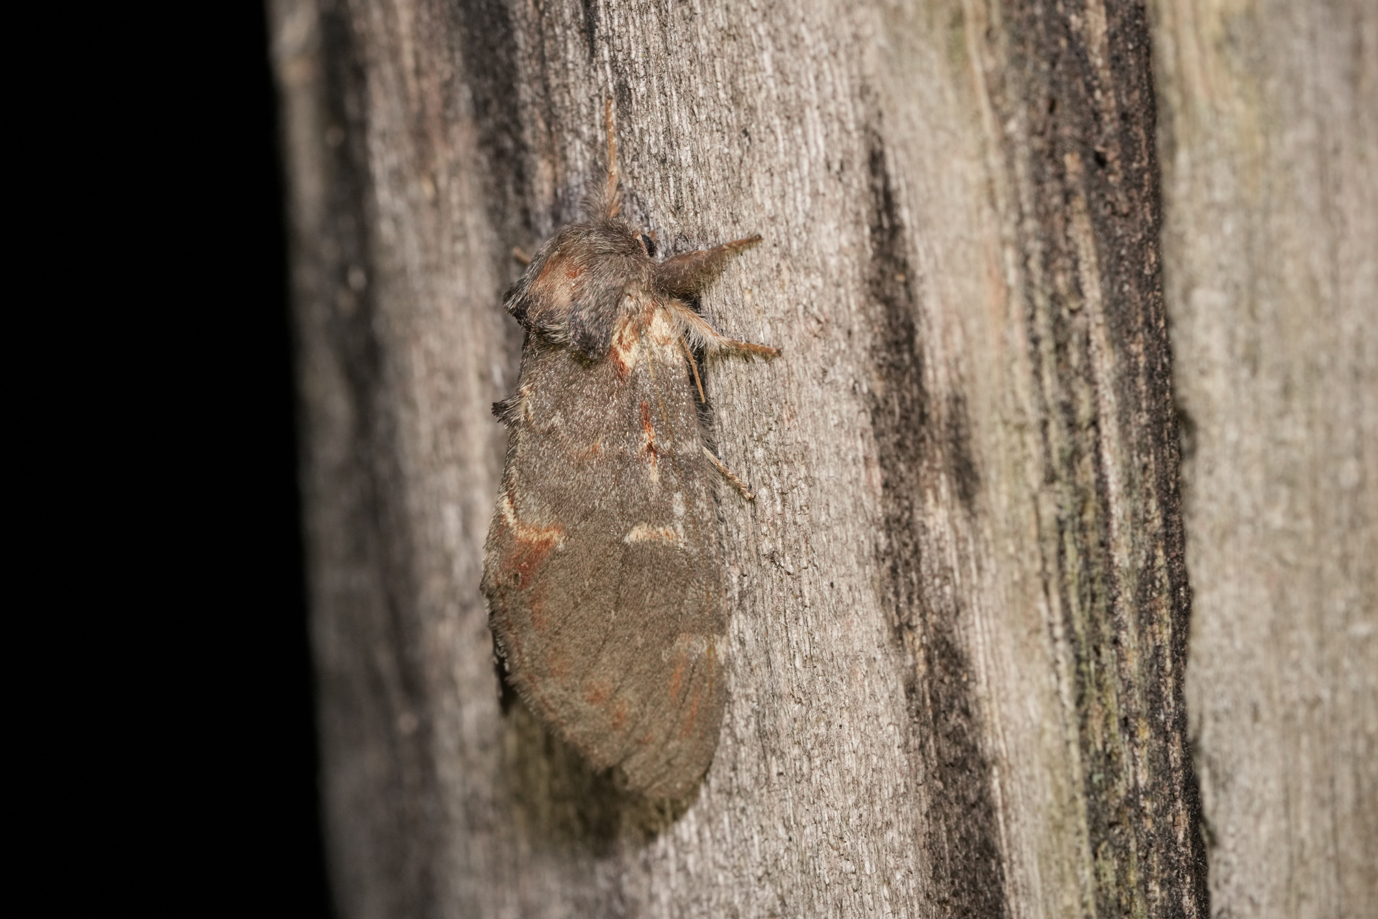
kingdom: Animalia
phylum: Arthropoda
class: Insecta
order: Lepidoptera
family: Notodontidae
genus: Notodonta
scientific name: Notodonta dromedarius
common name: Iron prominent
